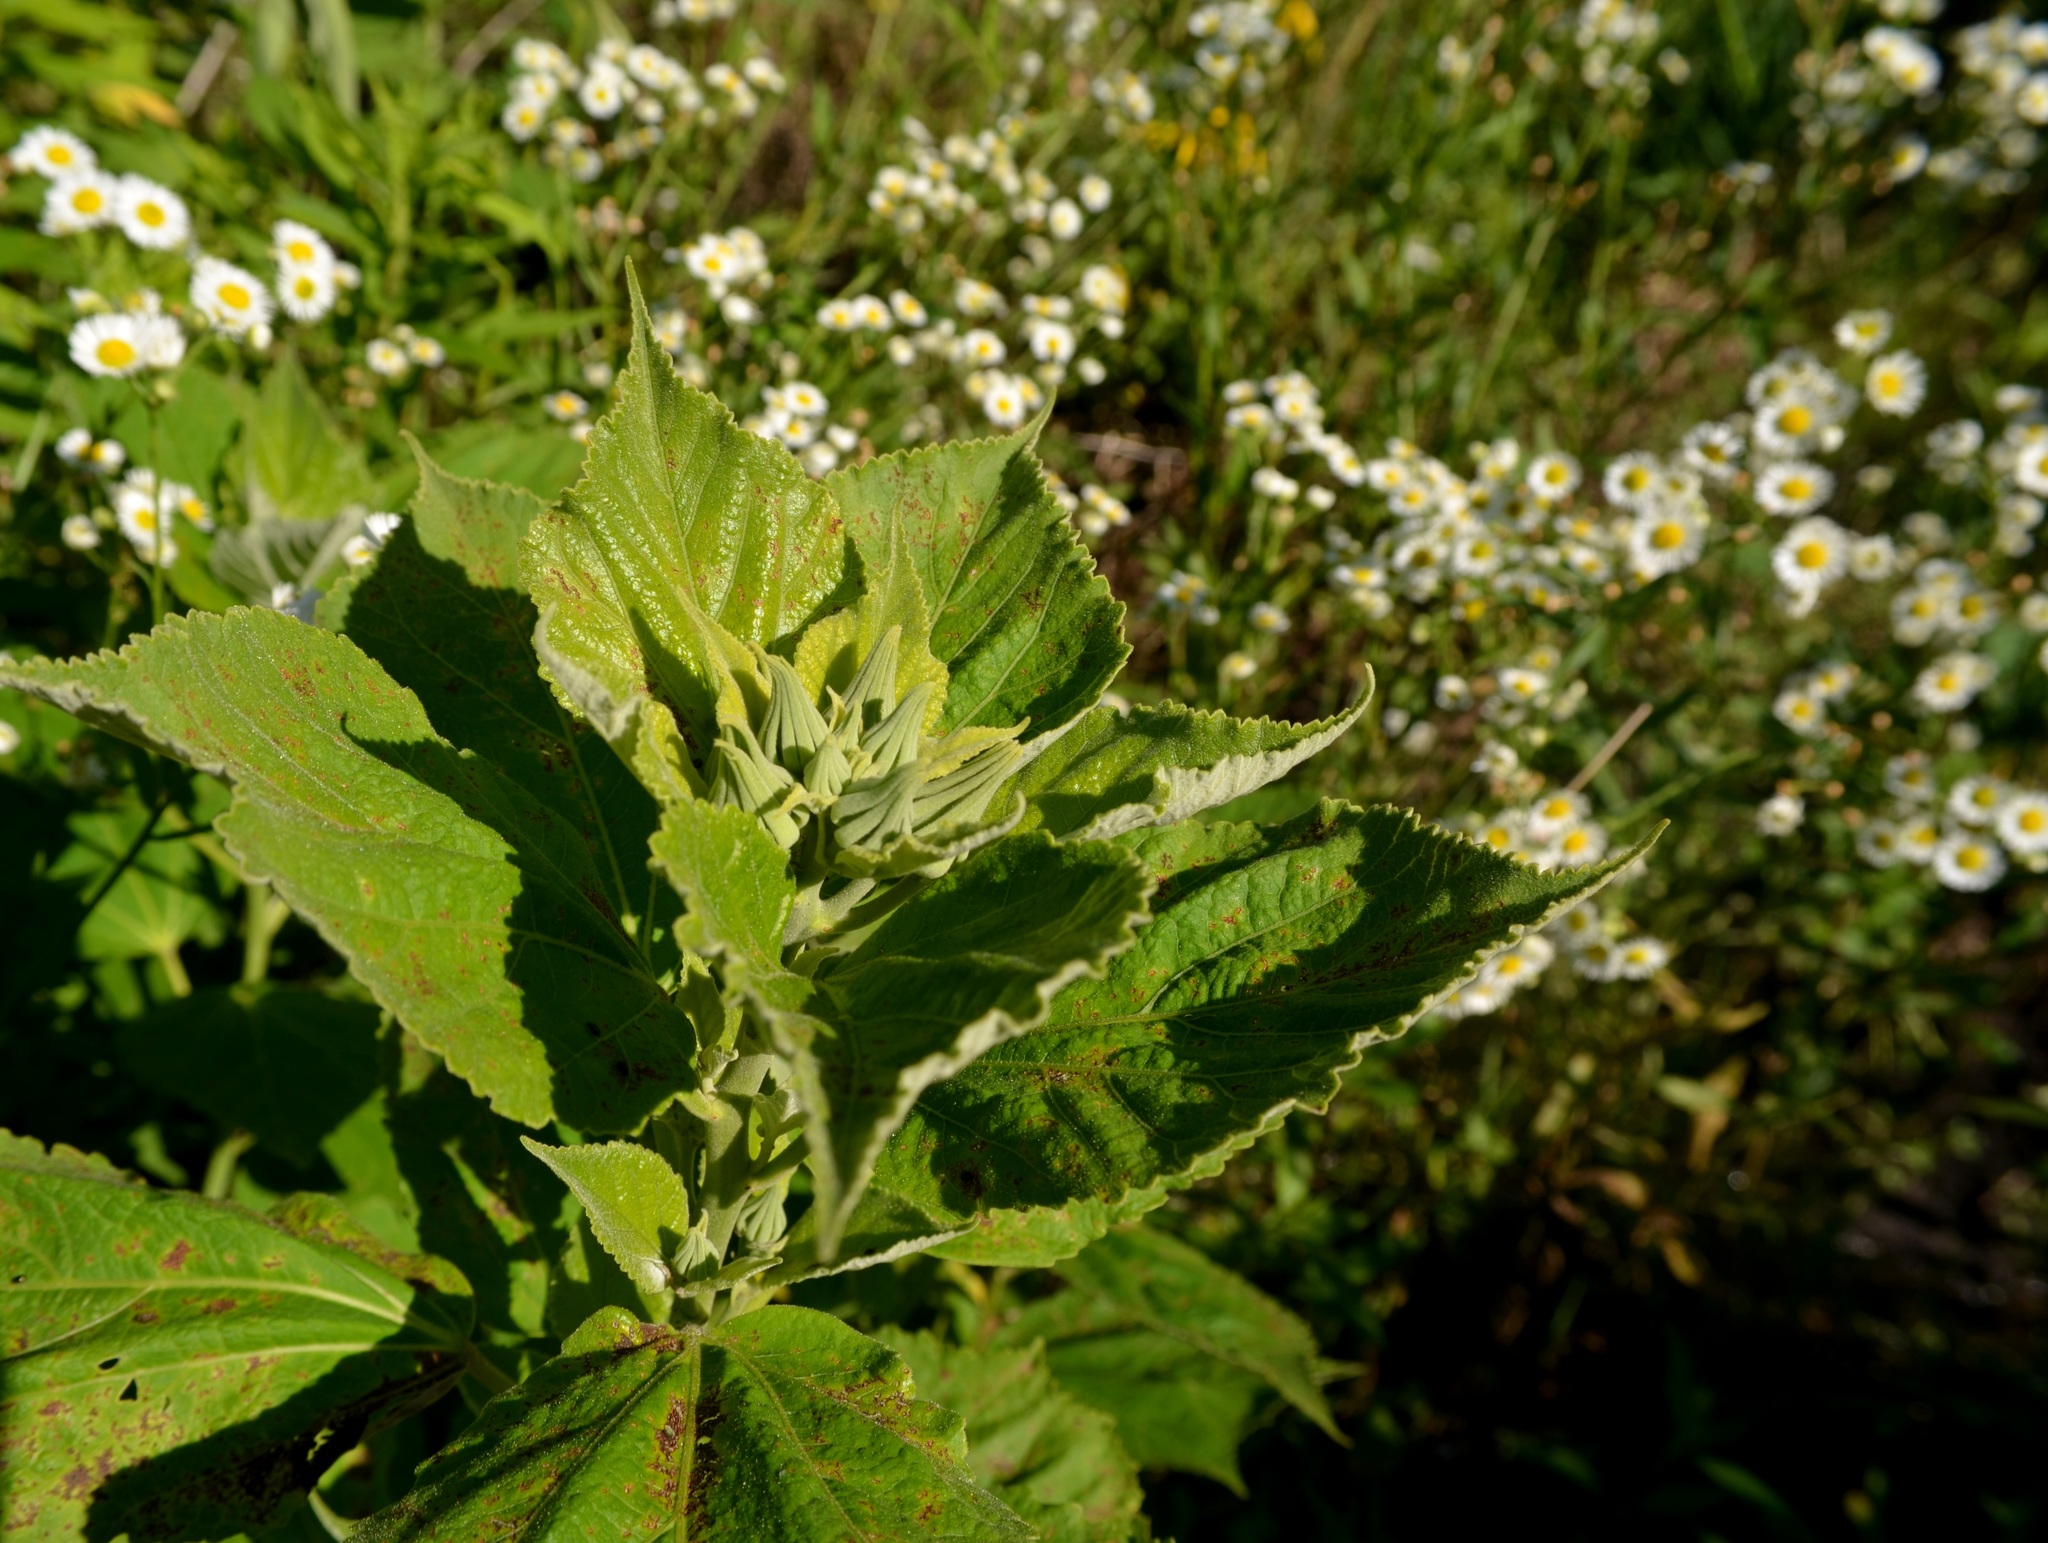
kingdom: Plantae
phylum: Tracheophyta
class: Magnoliopsida
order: Malvales
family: Malvaceae
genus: Hibiscus
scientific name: Hibiscus moscheutos
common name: Common rose-mallow
